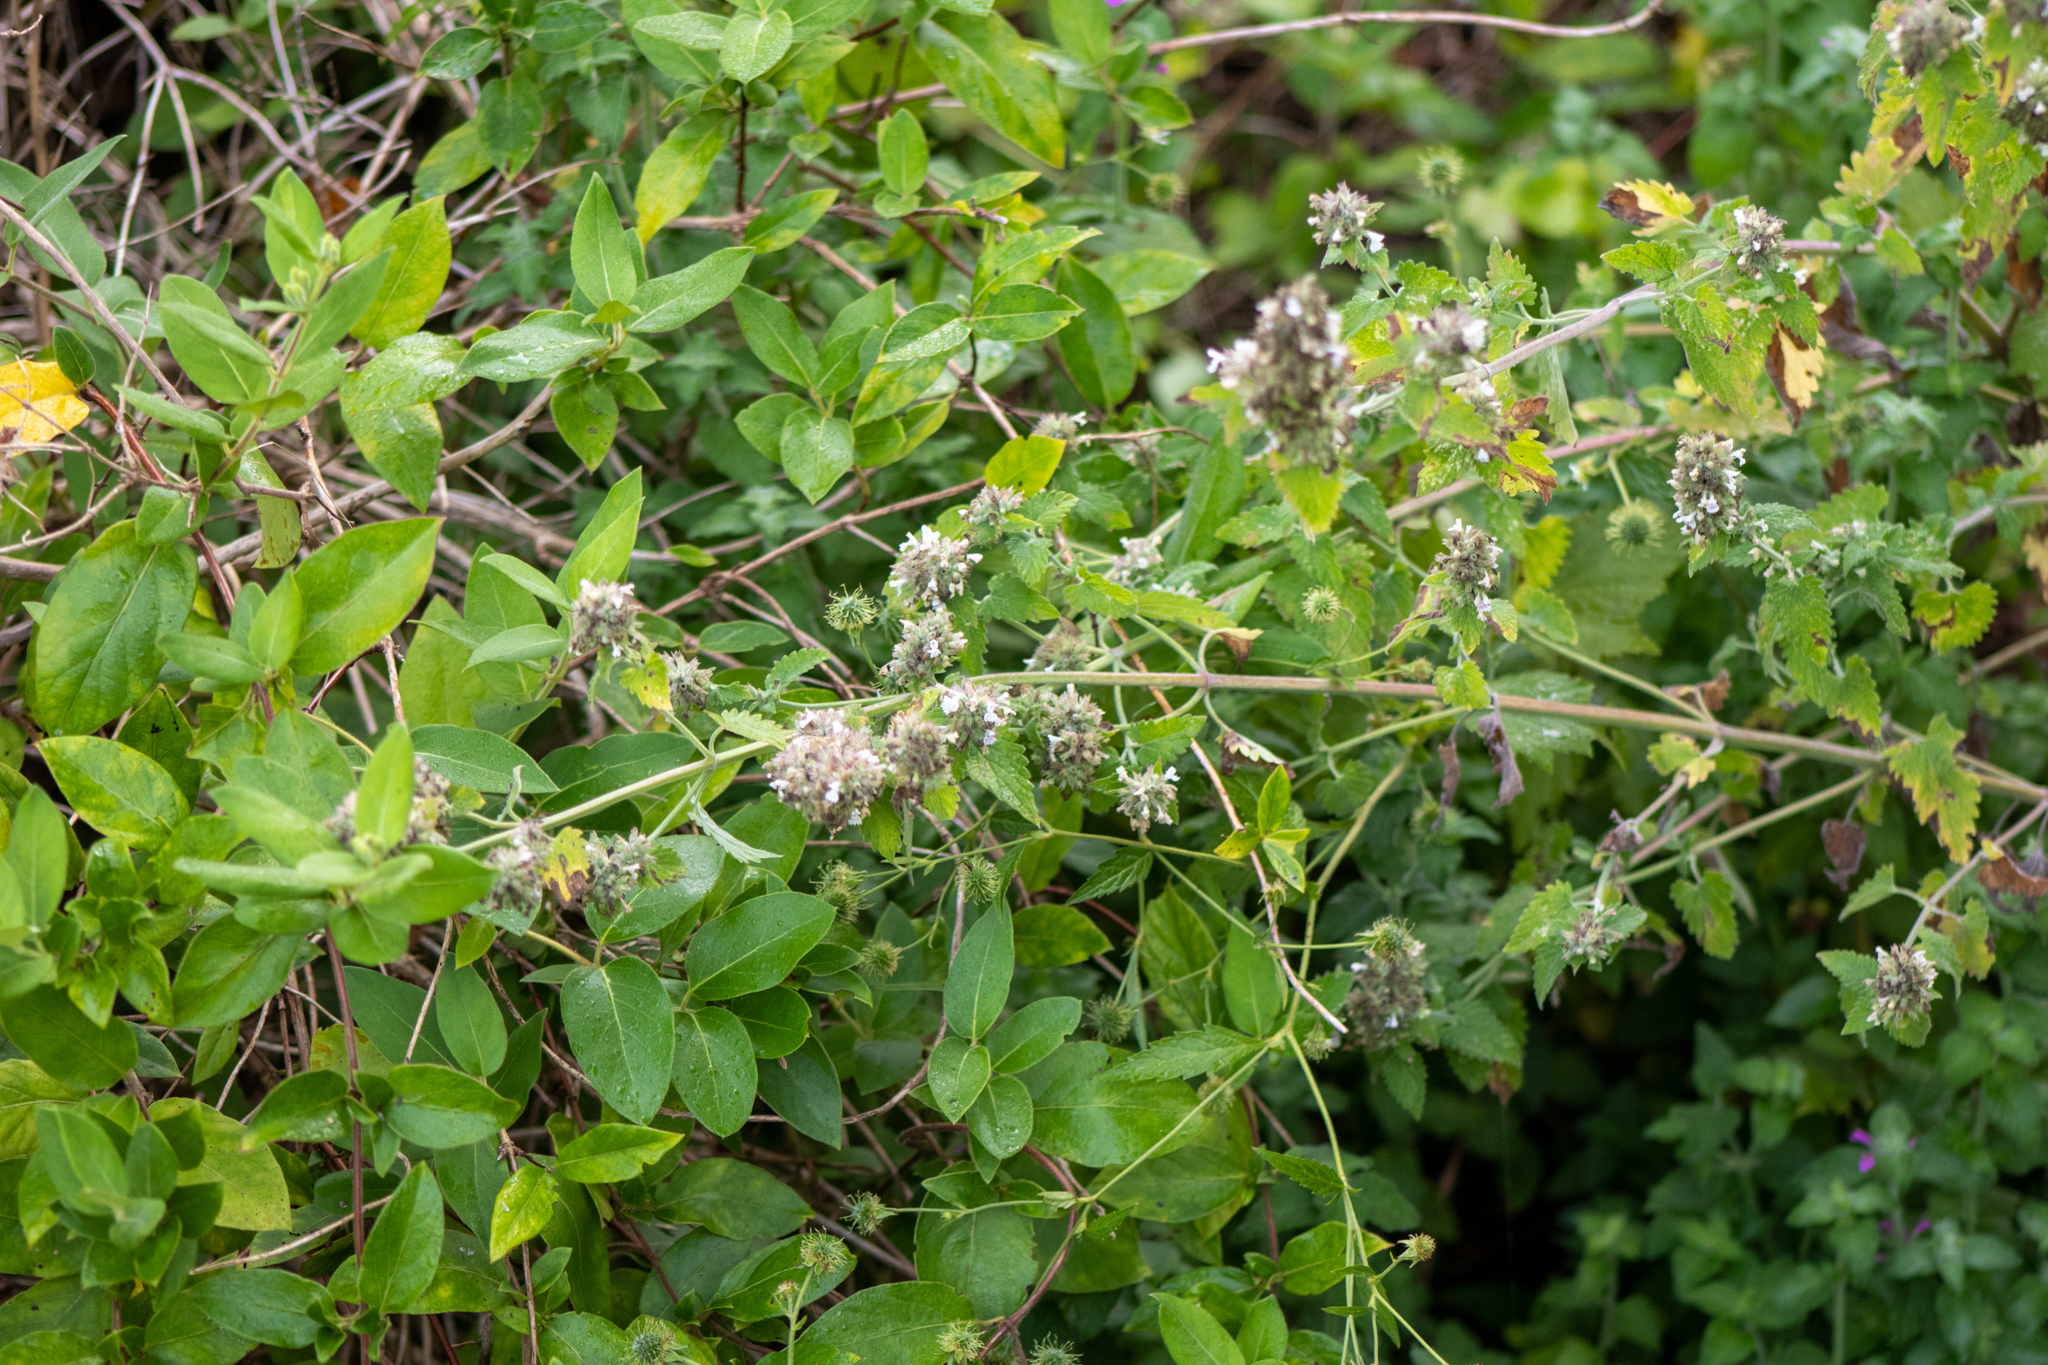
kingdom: Plantae
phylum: Tracheophyta
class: Magnoliopsida
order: Lamiales
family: Lamiaceae
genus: Nepeta
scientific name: Nepeta cataria
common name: Catnip
